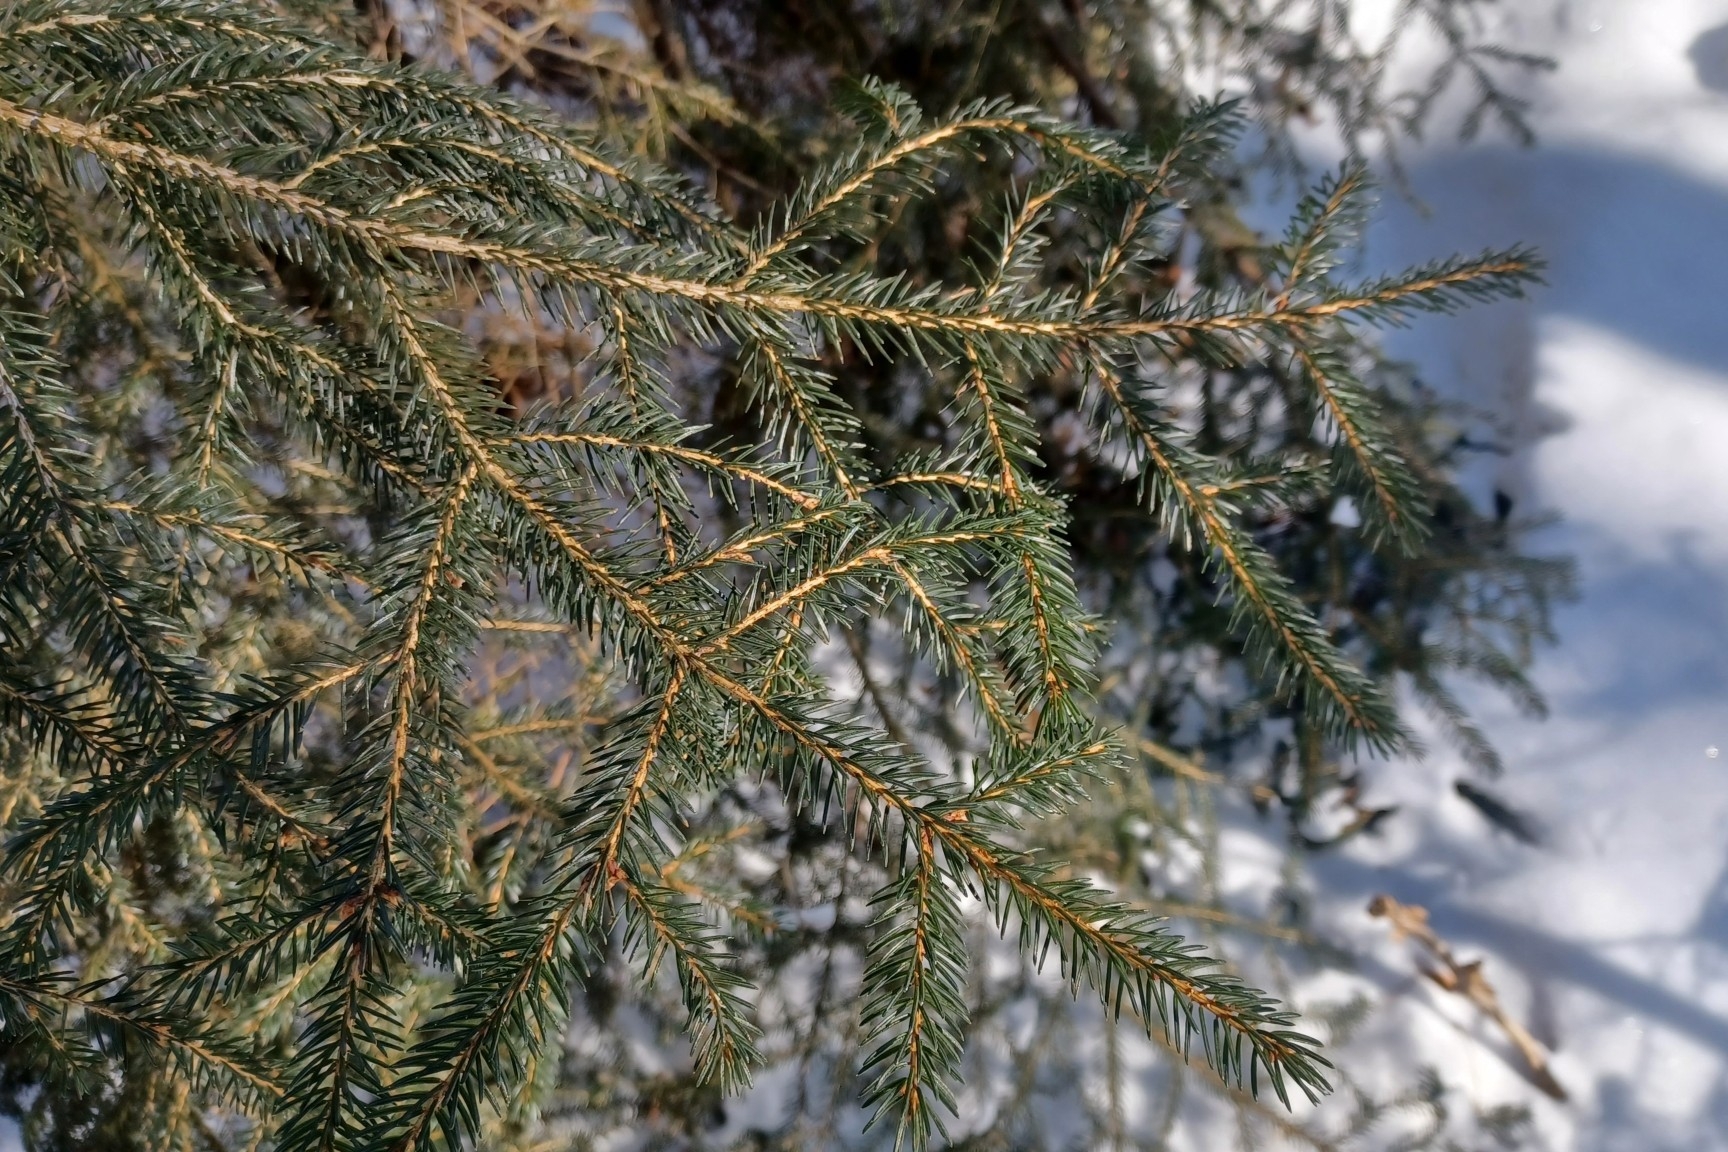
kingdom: Plantae
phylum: Tracheophyta
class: Pinopsida
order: Pinales
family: Pinaceae
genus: Picea
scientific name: Picea rubens
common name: Red spruce
